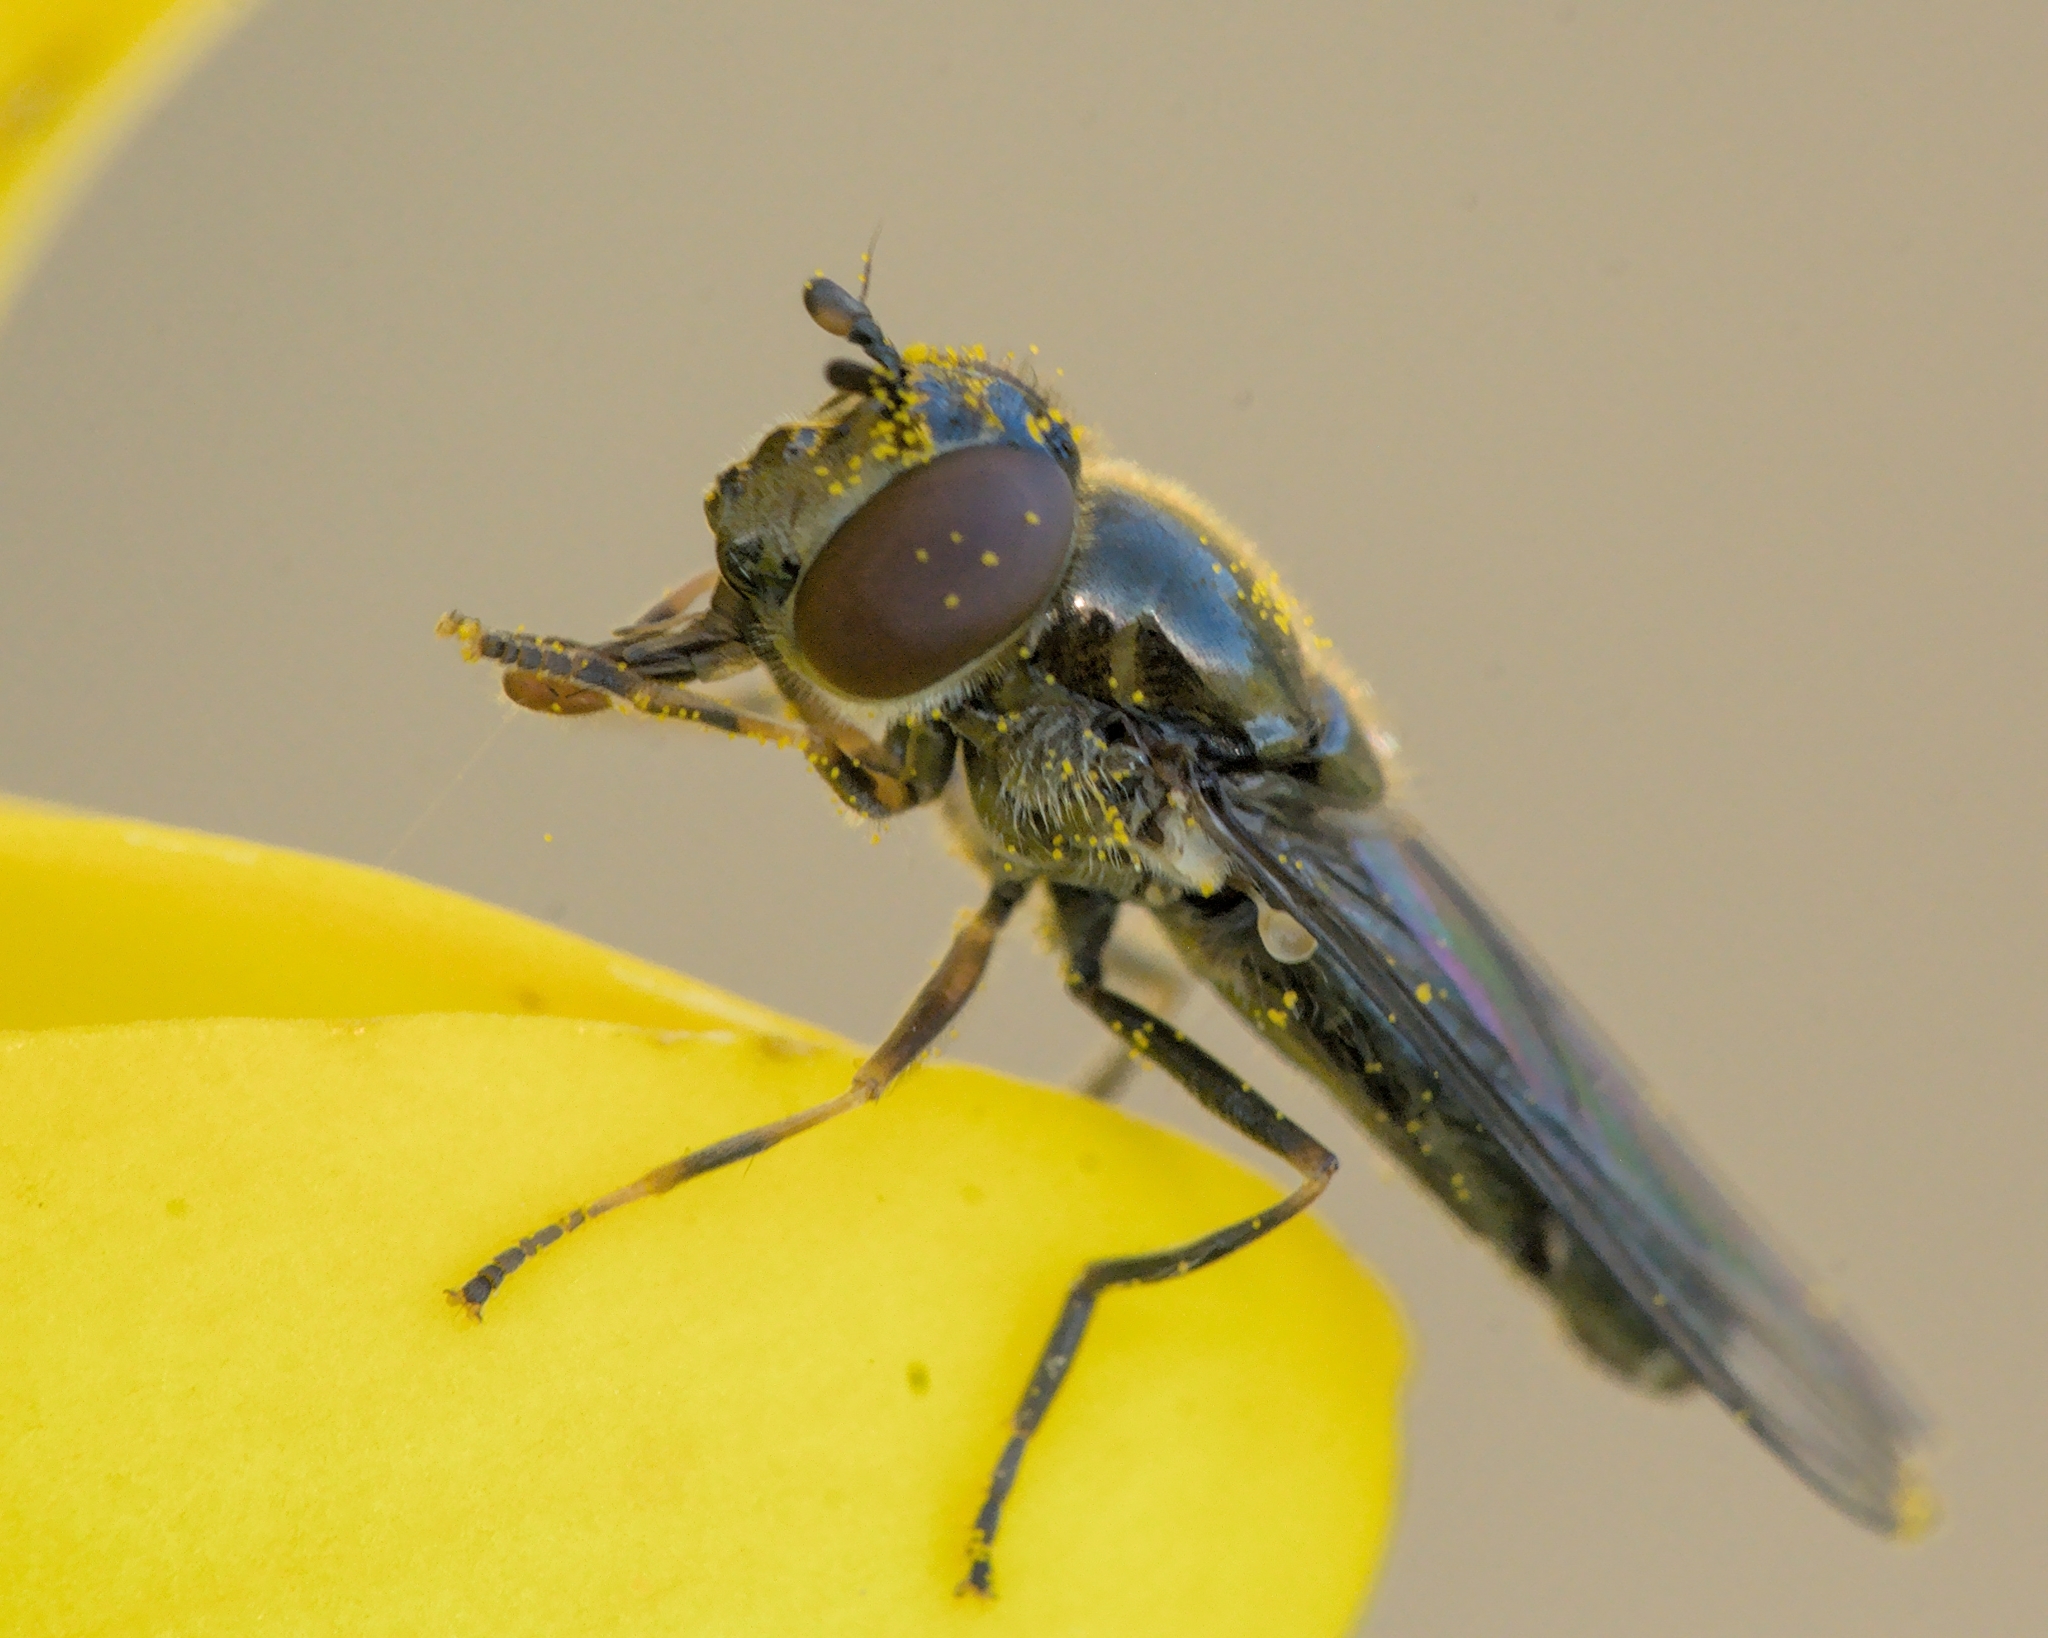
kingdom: Animalia
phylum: Arthropoda
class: Insecta
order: Diptera
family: Syrphidae
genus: Platycheirus
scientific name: Platycheirus
